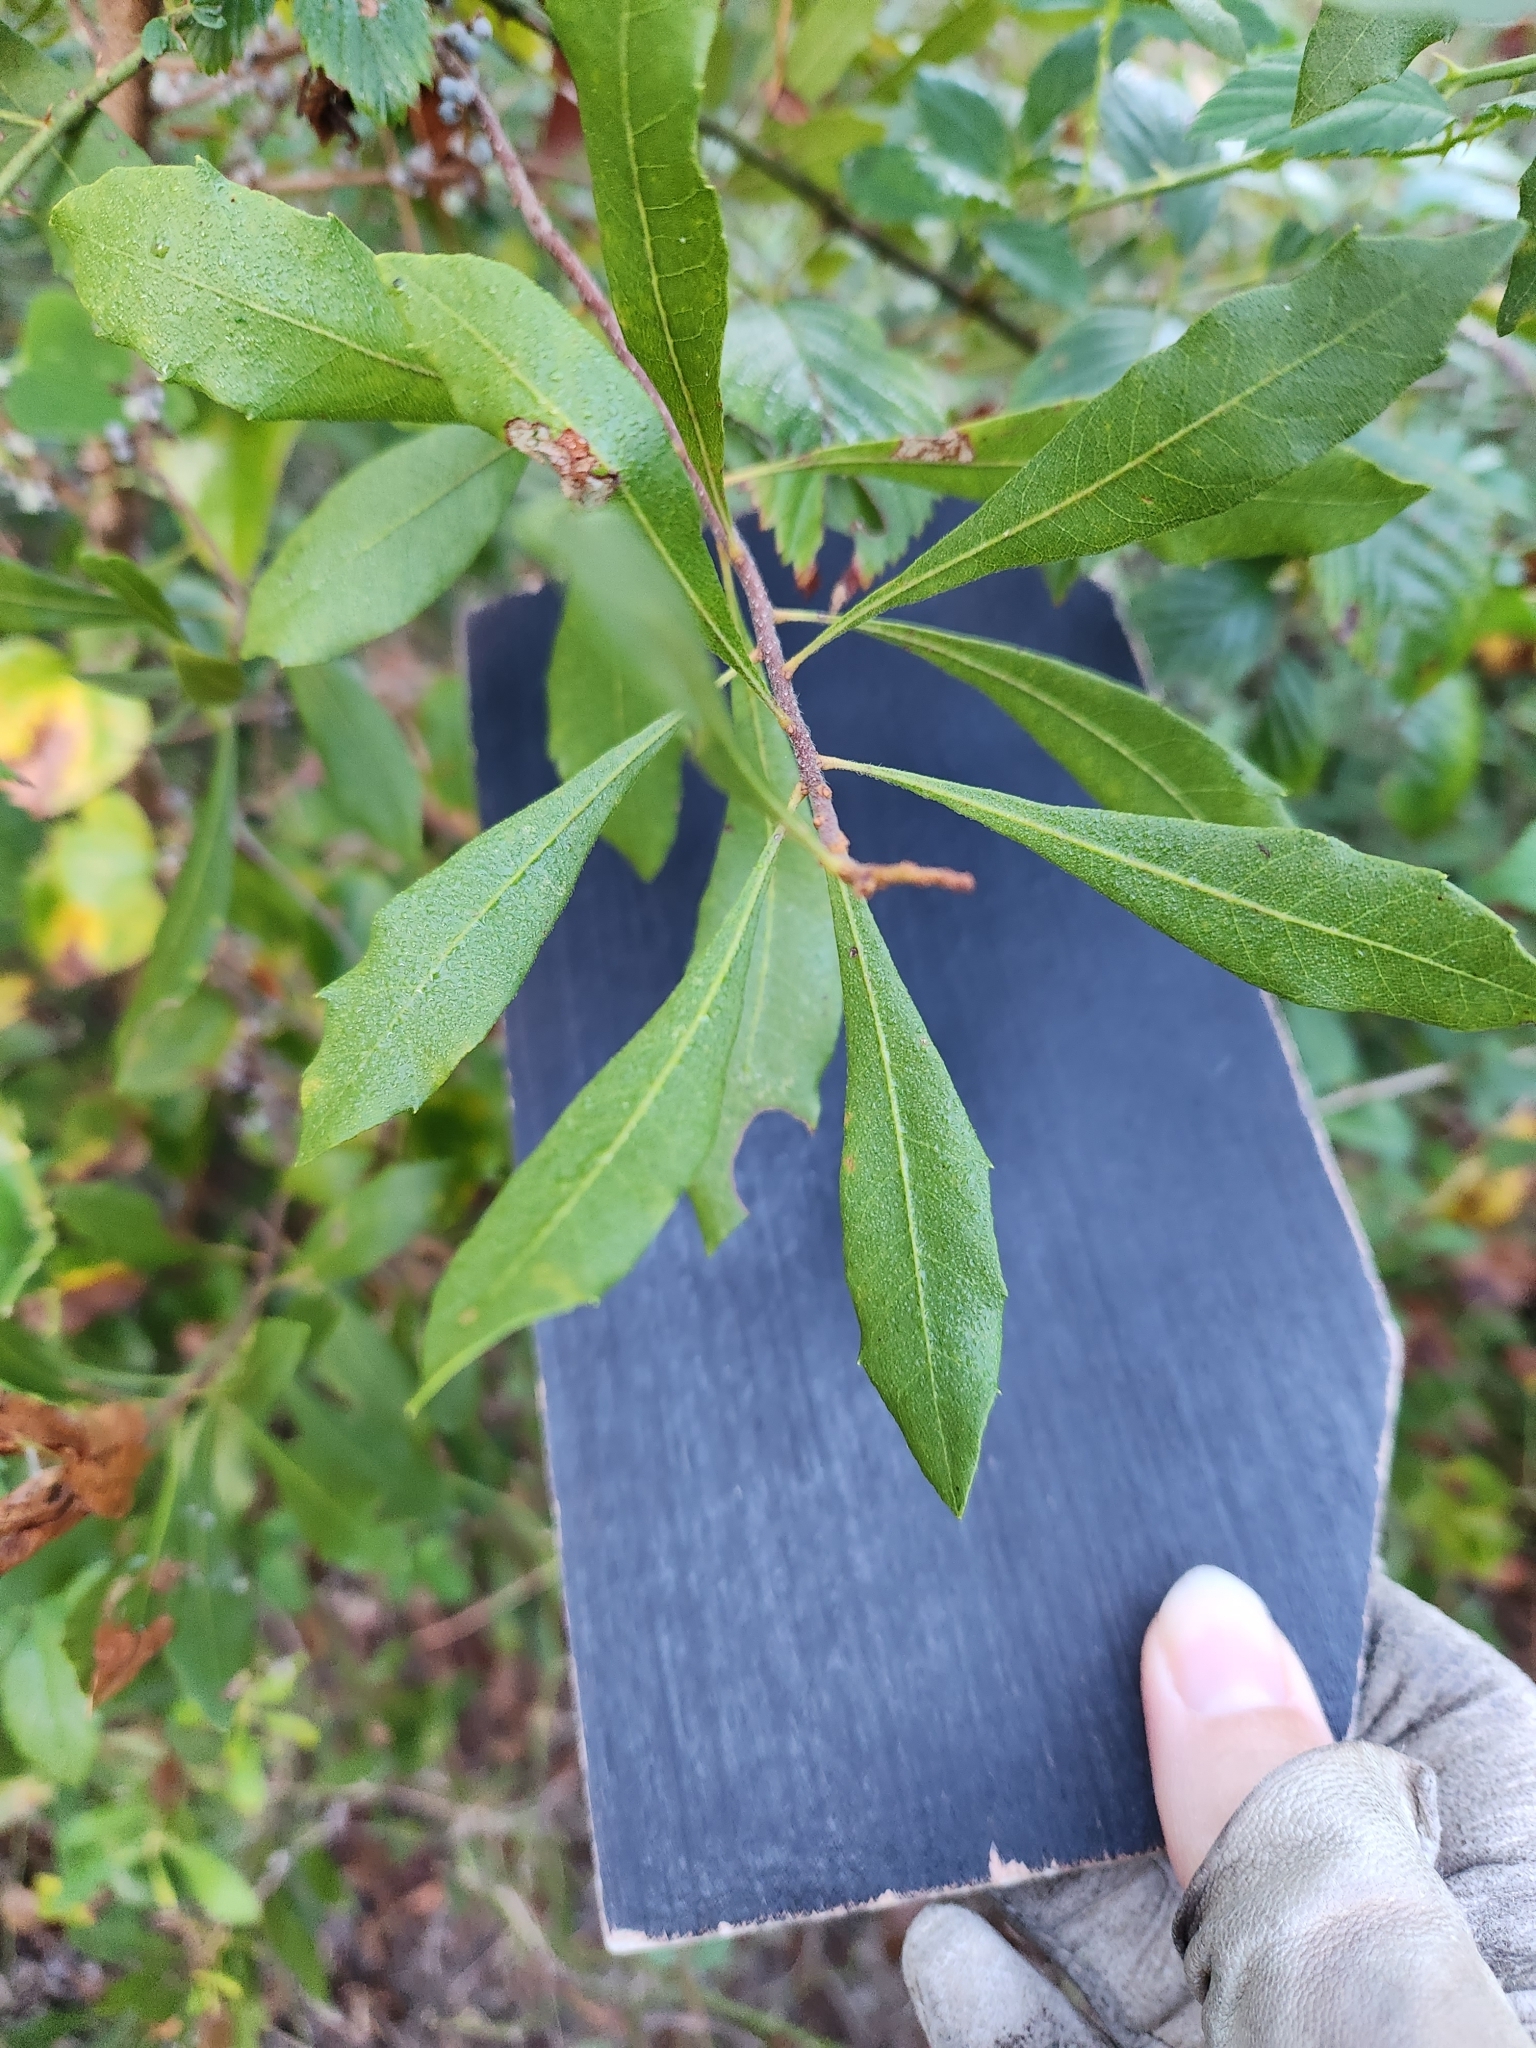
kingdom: Plantae
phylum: Tracheophyta
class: Magnoliopsida
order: Fagales
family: Myricaceae
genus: Morella
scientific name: Morella cerifera
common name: Wax myrtle
